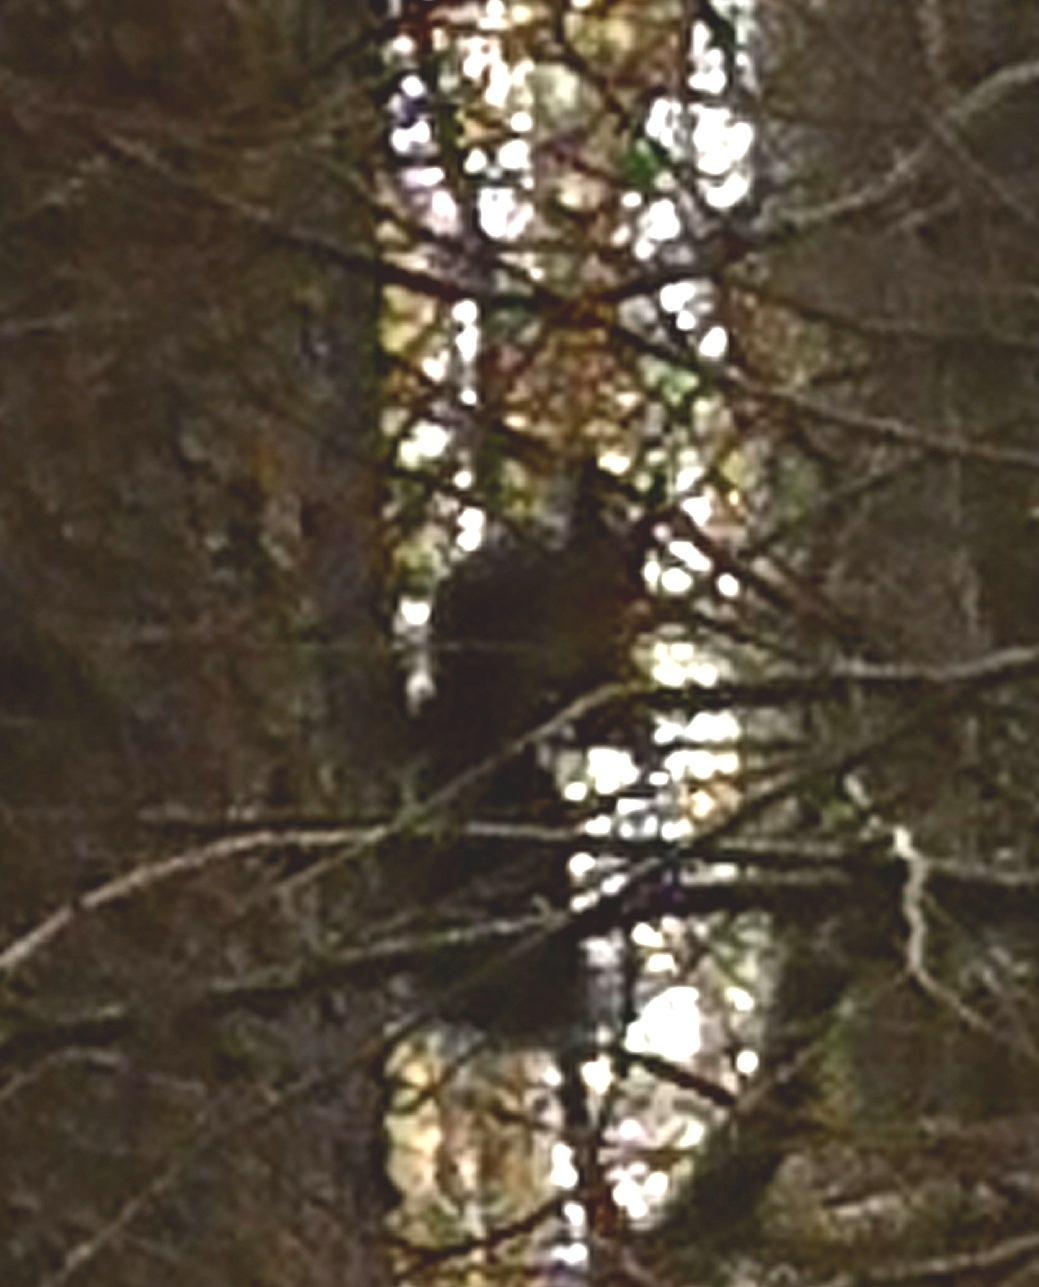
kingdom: Animalia
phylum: Chordata
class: Mammalia
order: Rodentia
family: Sciuridae
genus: Sciurus
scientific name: Sciurus vulgaris
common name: Eurasian red squirrel
